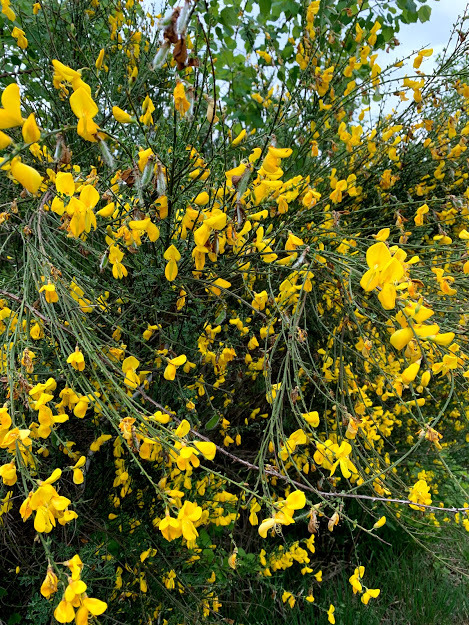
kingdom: Plantae
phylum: Tracheophyta
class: Magnoliopsida
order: Fabales
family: Fabaceae
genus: Cytisus
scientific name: Cytisus scoparius
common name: Scotch broom
